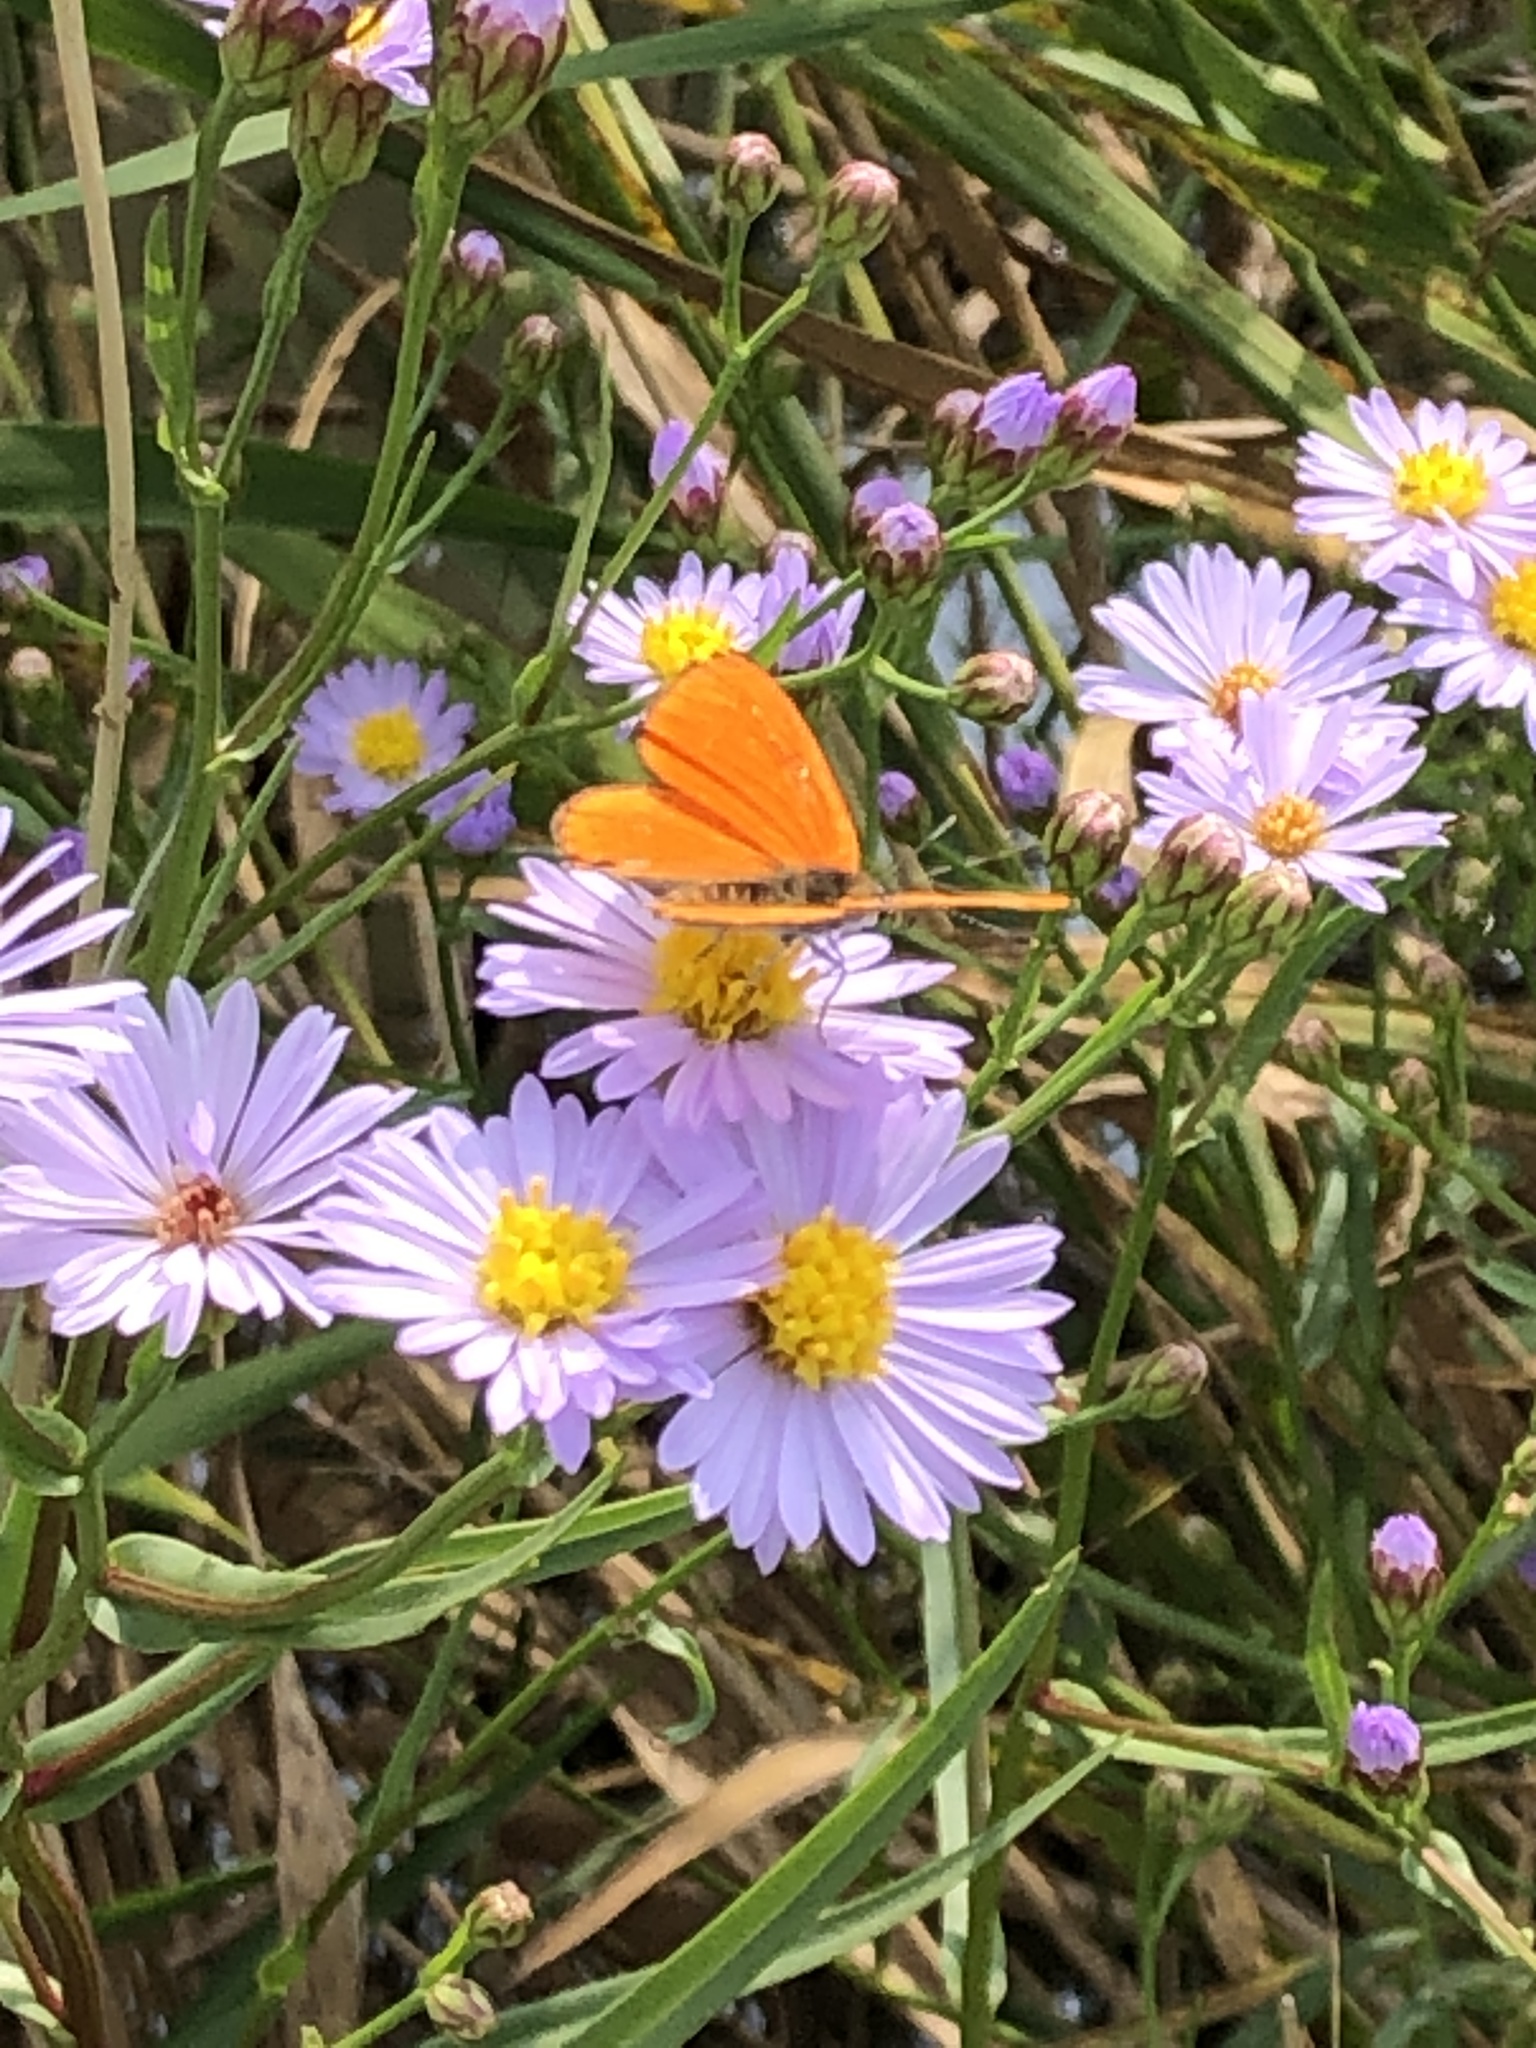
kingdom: Animalia
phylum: Arthropoda
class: Insecta
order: Lepidoptera
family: Lycaenidae
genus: Lycaena
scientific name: Lycaena dispar
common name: Large copper
